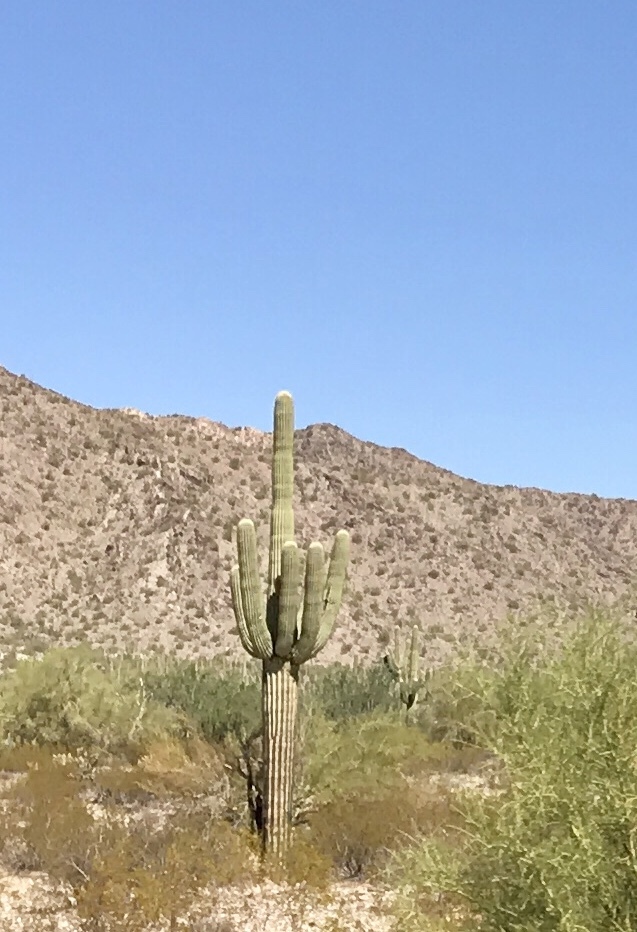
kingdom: Plantae
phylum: Tracheophyta
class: Magnoliopsida
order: Caryophyllales
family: Cactaceae
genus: Carnegiea
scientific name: Carnegiea gigantea
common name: Saguaro
